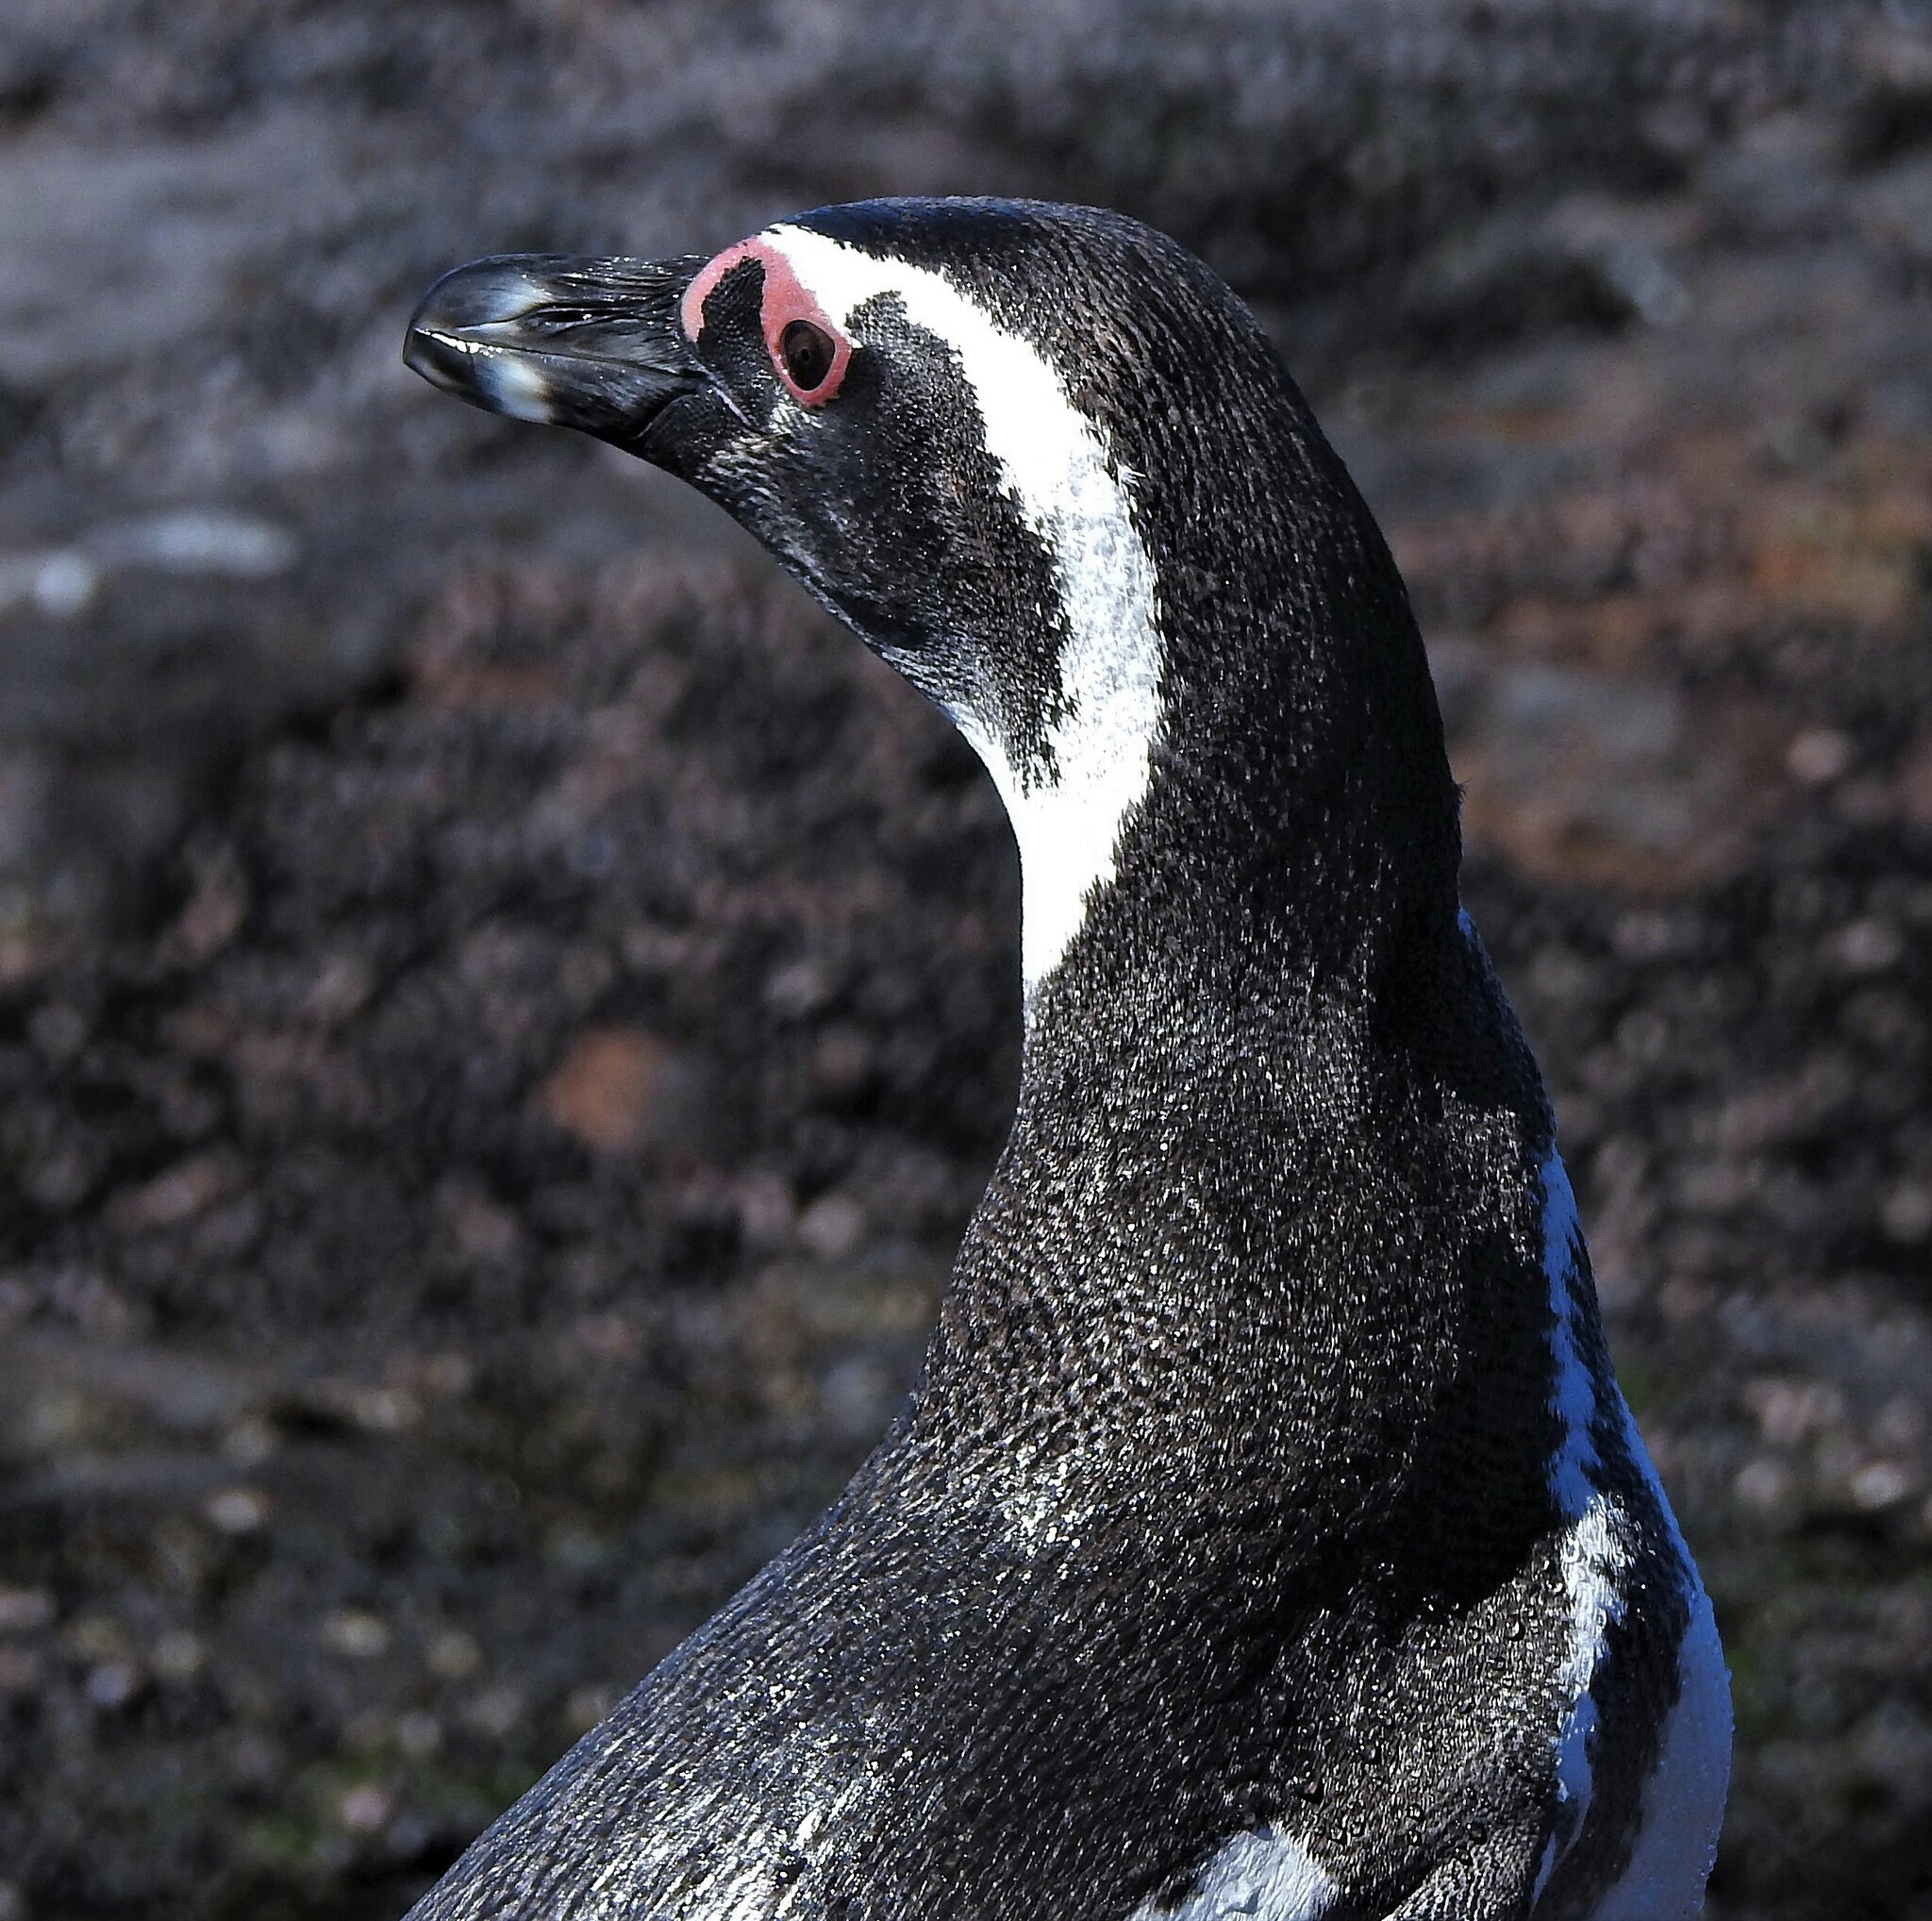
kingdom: Animalia
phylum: Chordata
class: Aves
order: Sphenisciformes
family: Spheniscidae
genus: Spheniscus
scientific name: Spheniscus magellanicus
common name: Magellanic penguin
